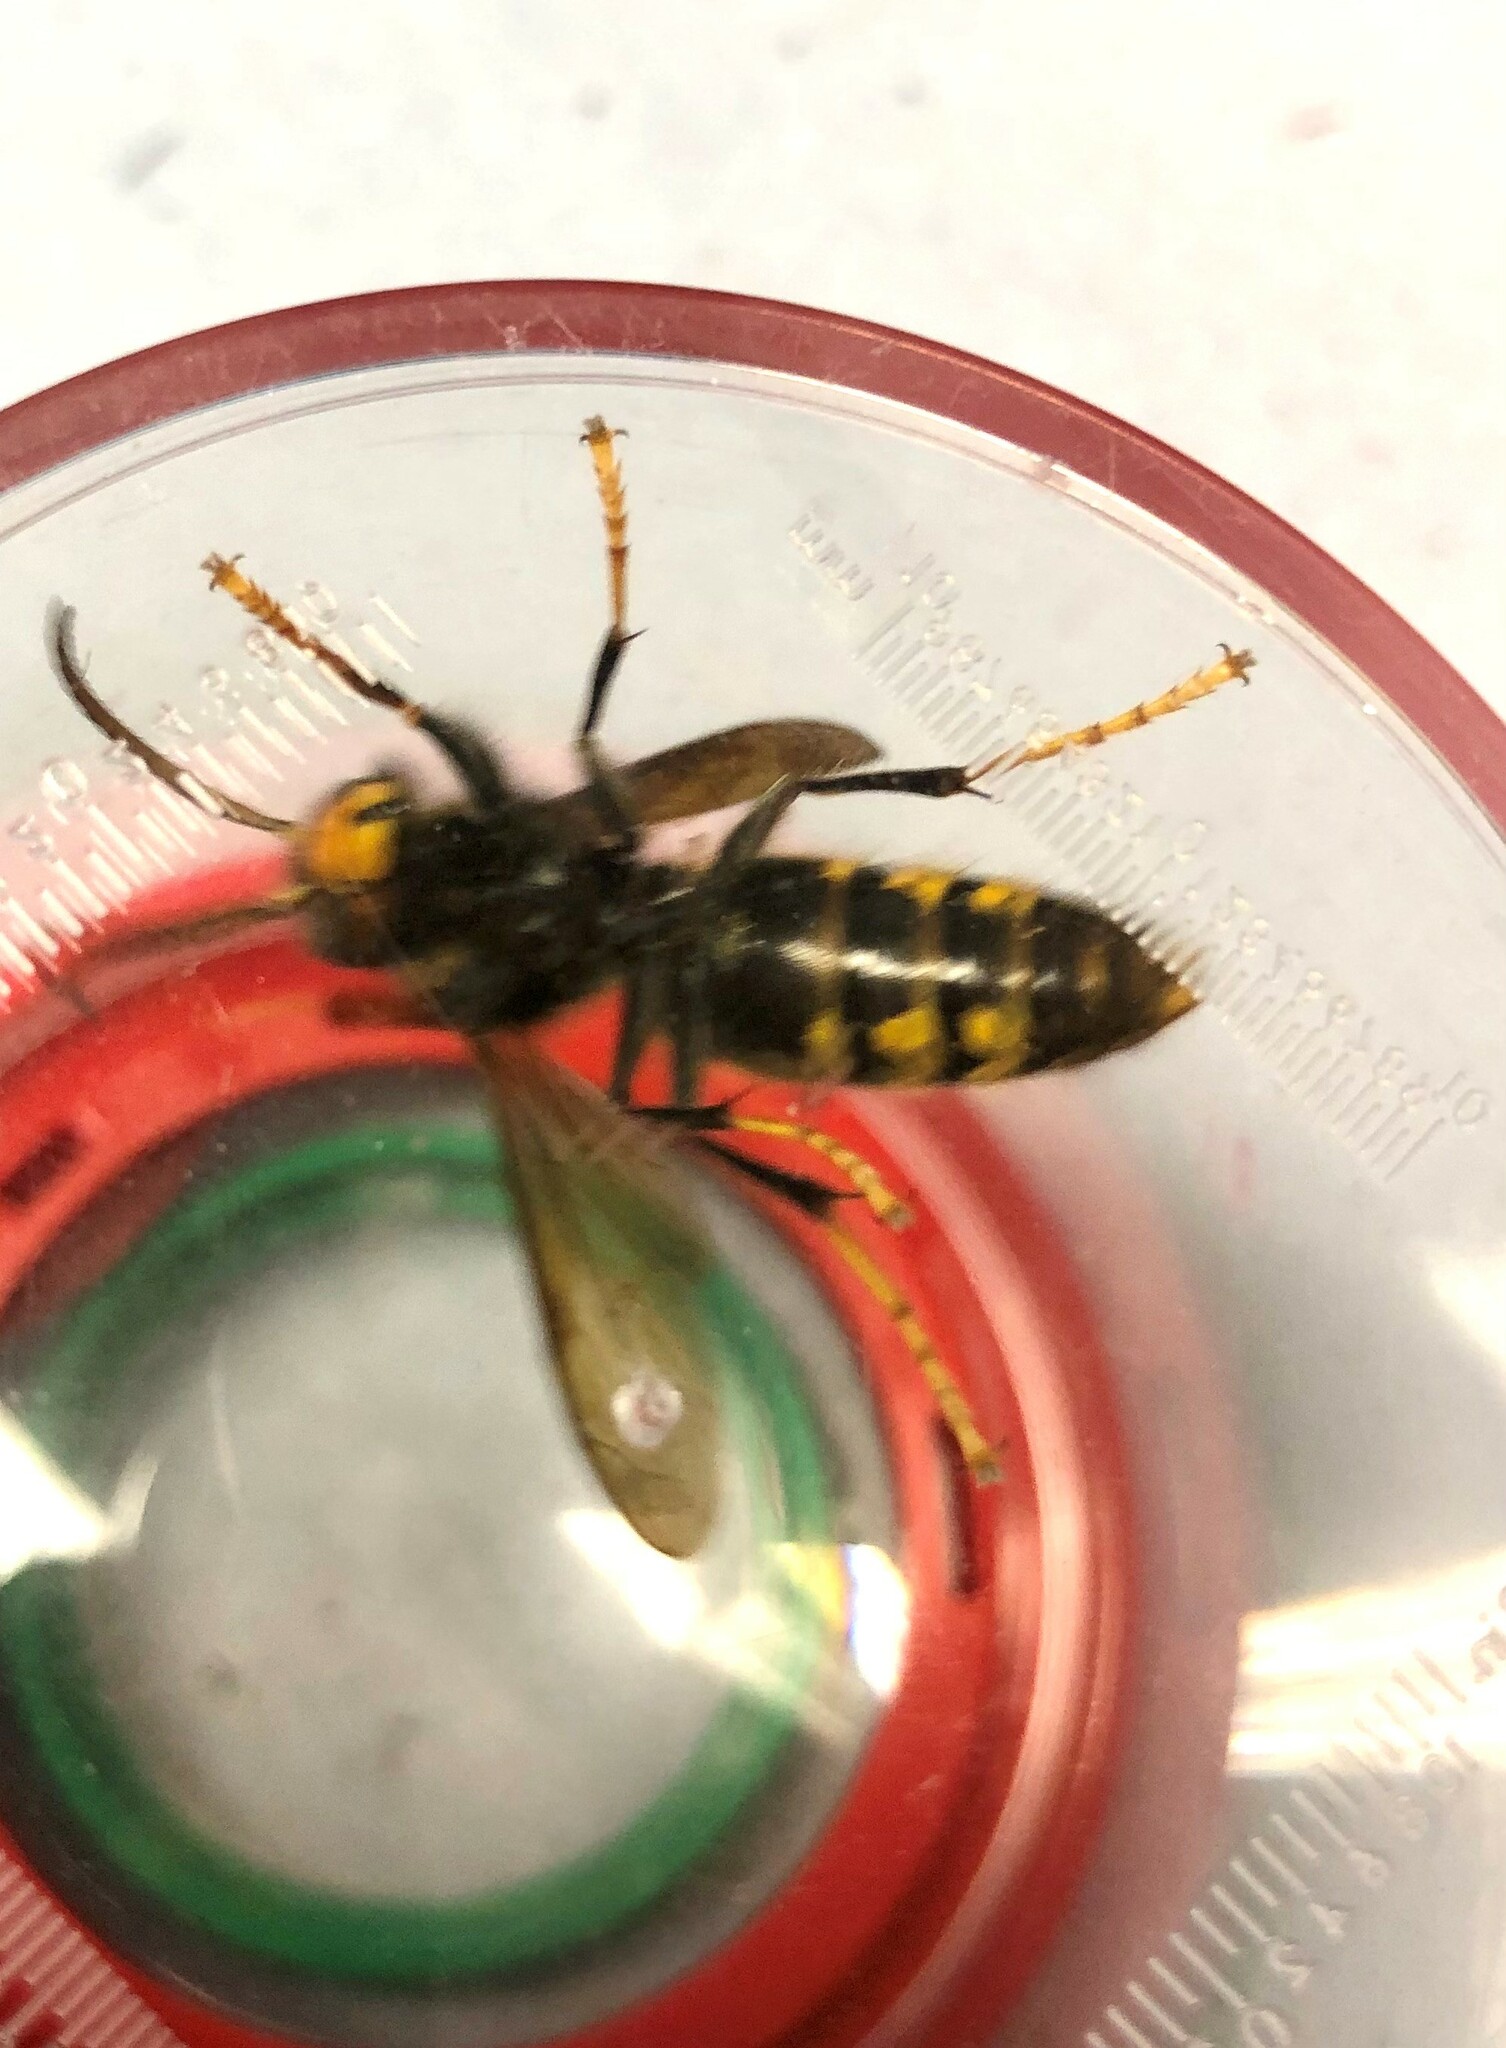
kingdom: Animalia
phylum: Arthropoda
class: Insecta
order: Hymenoptera
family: Vespidae
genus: Vespa
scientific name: Vespa velutina
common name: Asian hornet
